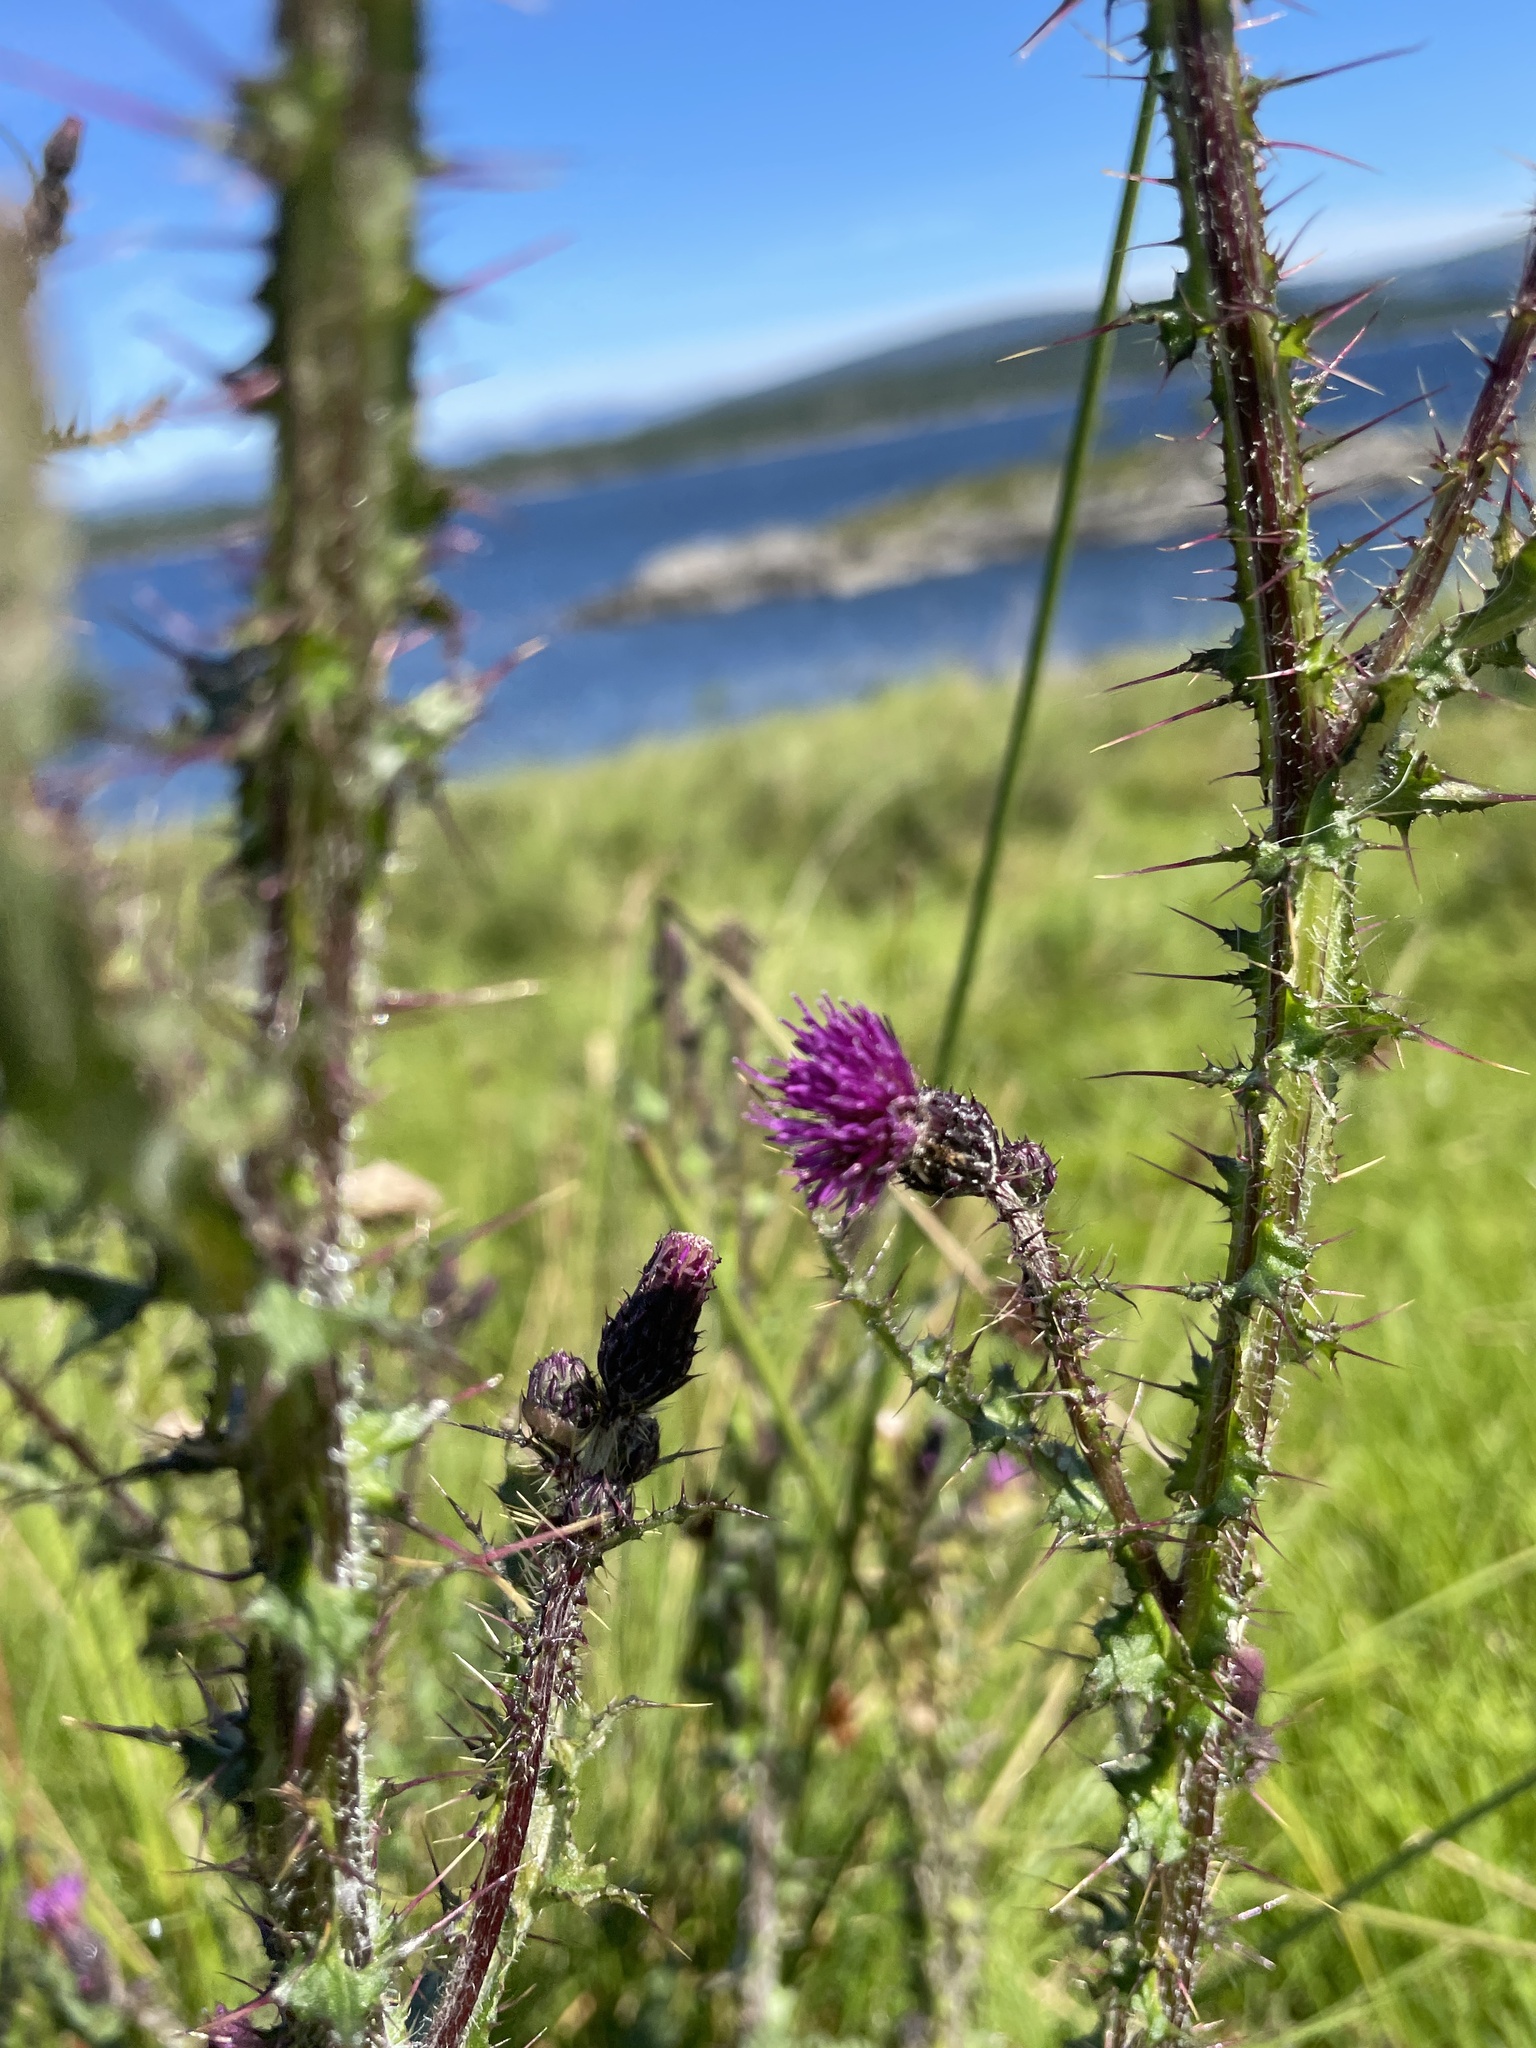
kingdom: Plantae
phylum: Tracheophyta
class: Magnoliopsida
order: Asterales
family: Asteraceae
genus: Cirsium
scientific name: Cirsium palustre
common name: Marsh thistle
